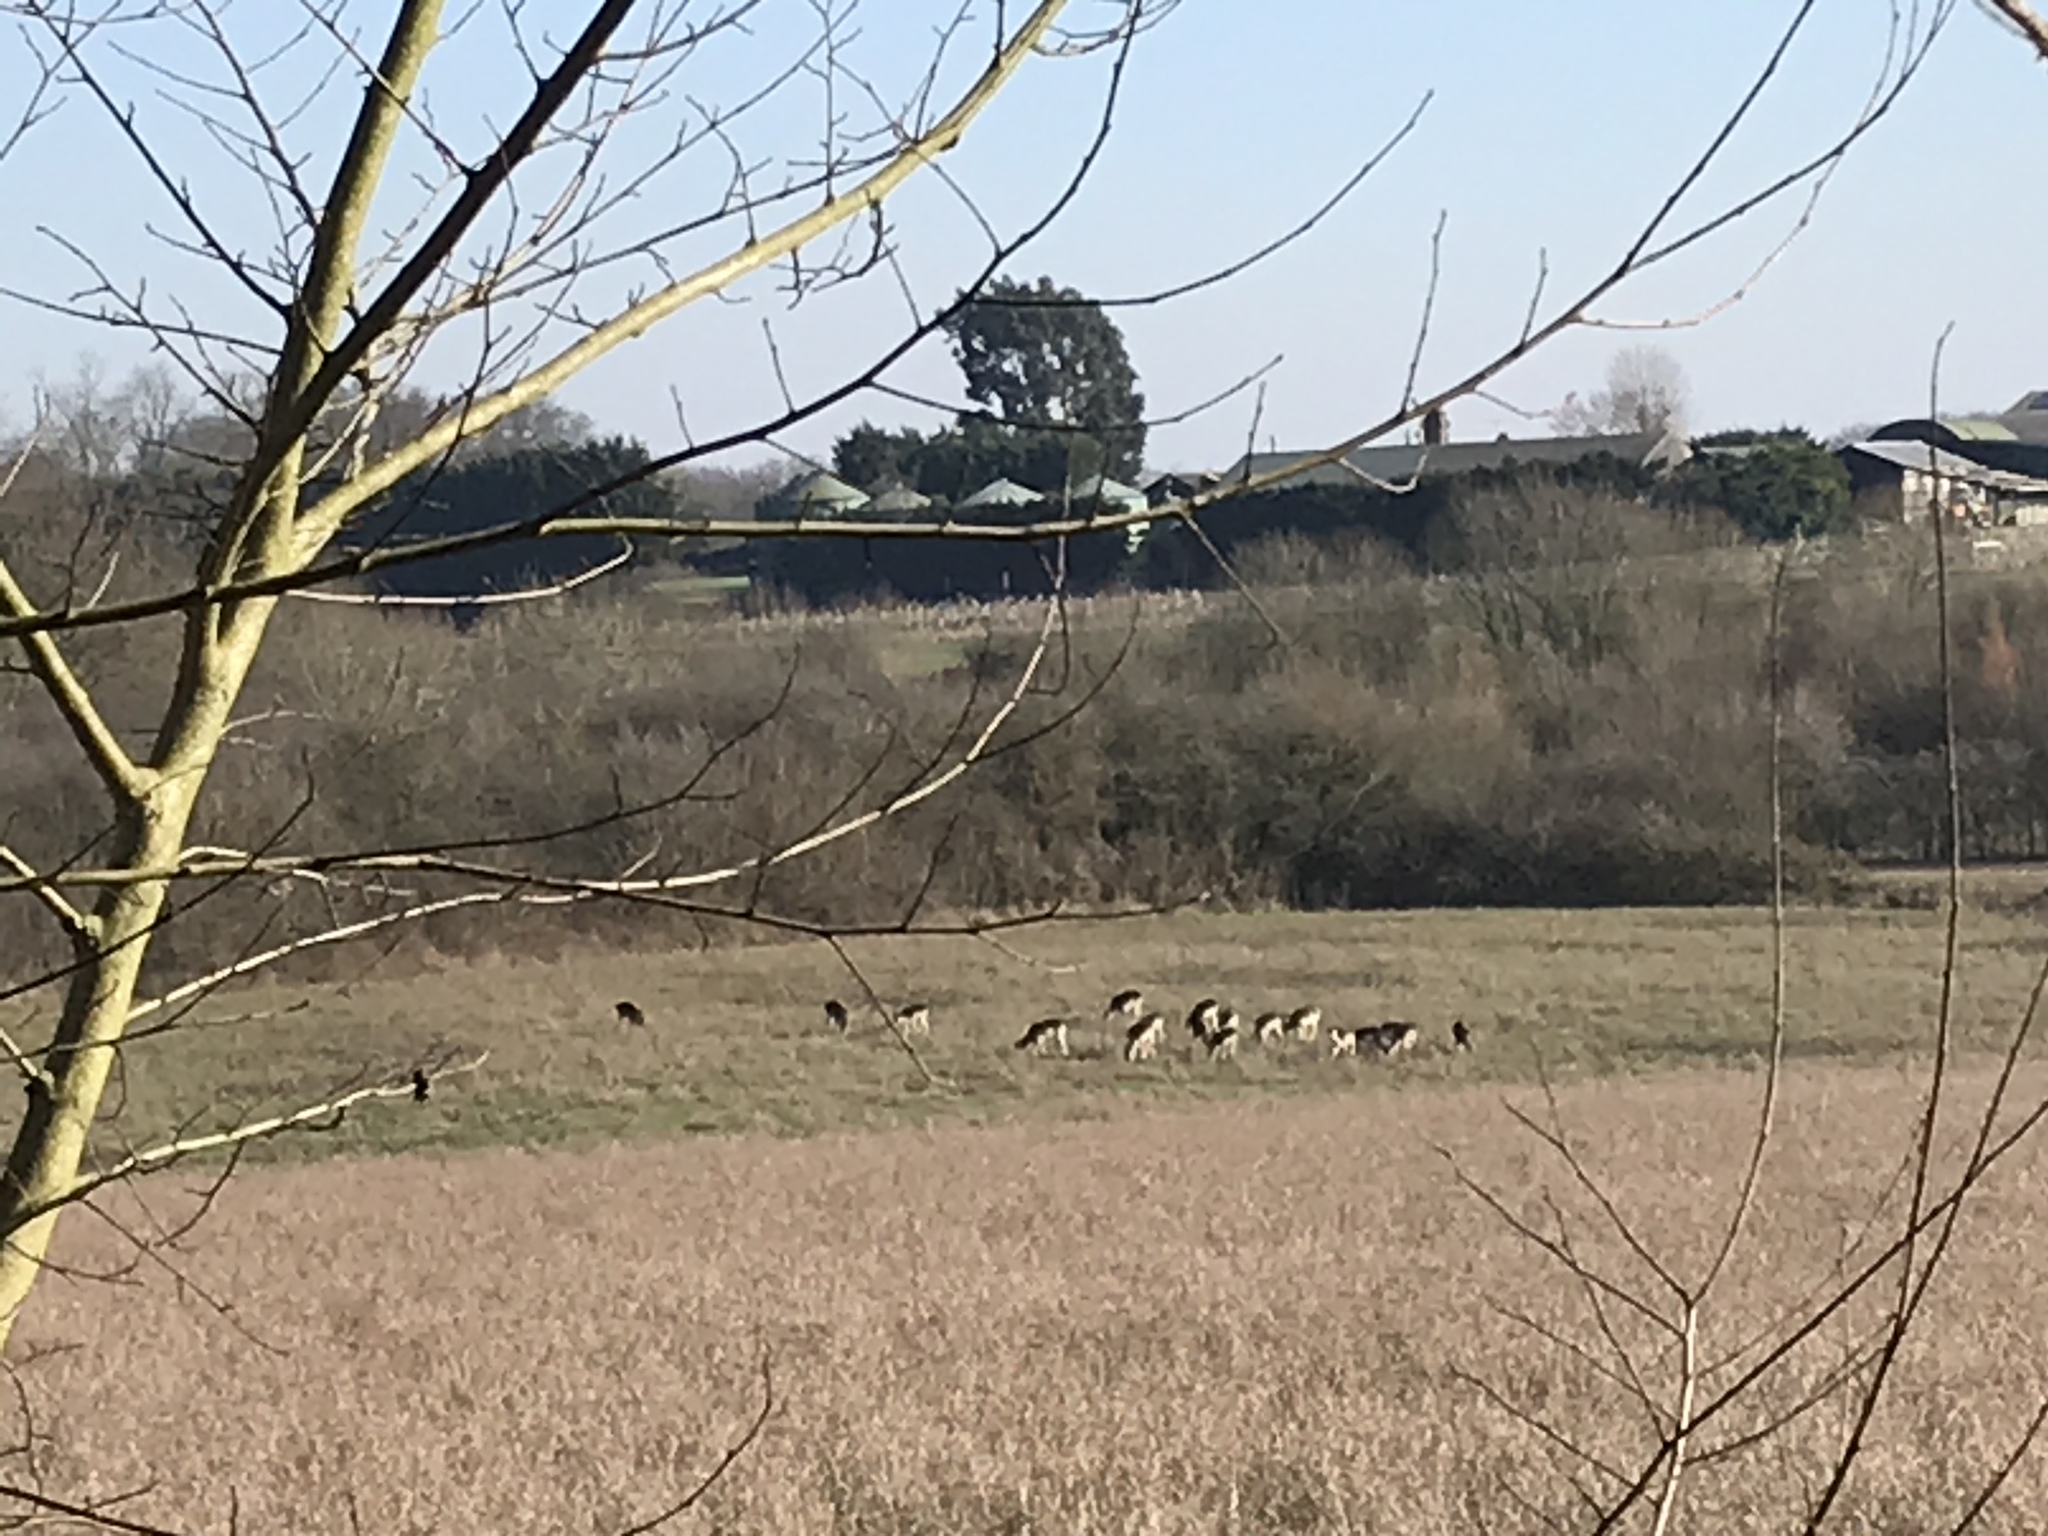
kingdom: Animalia
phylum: Chordata
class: Mammalia
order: Artiodactyla
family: Cervidae
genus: Dama
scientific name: Dama dama
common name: Fallow deer
